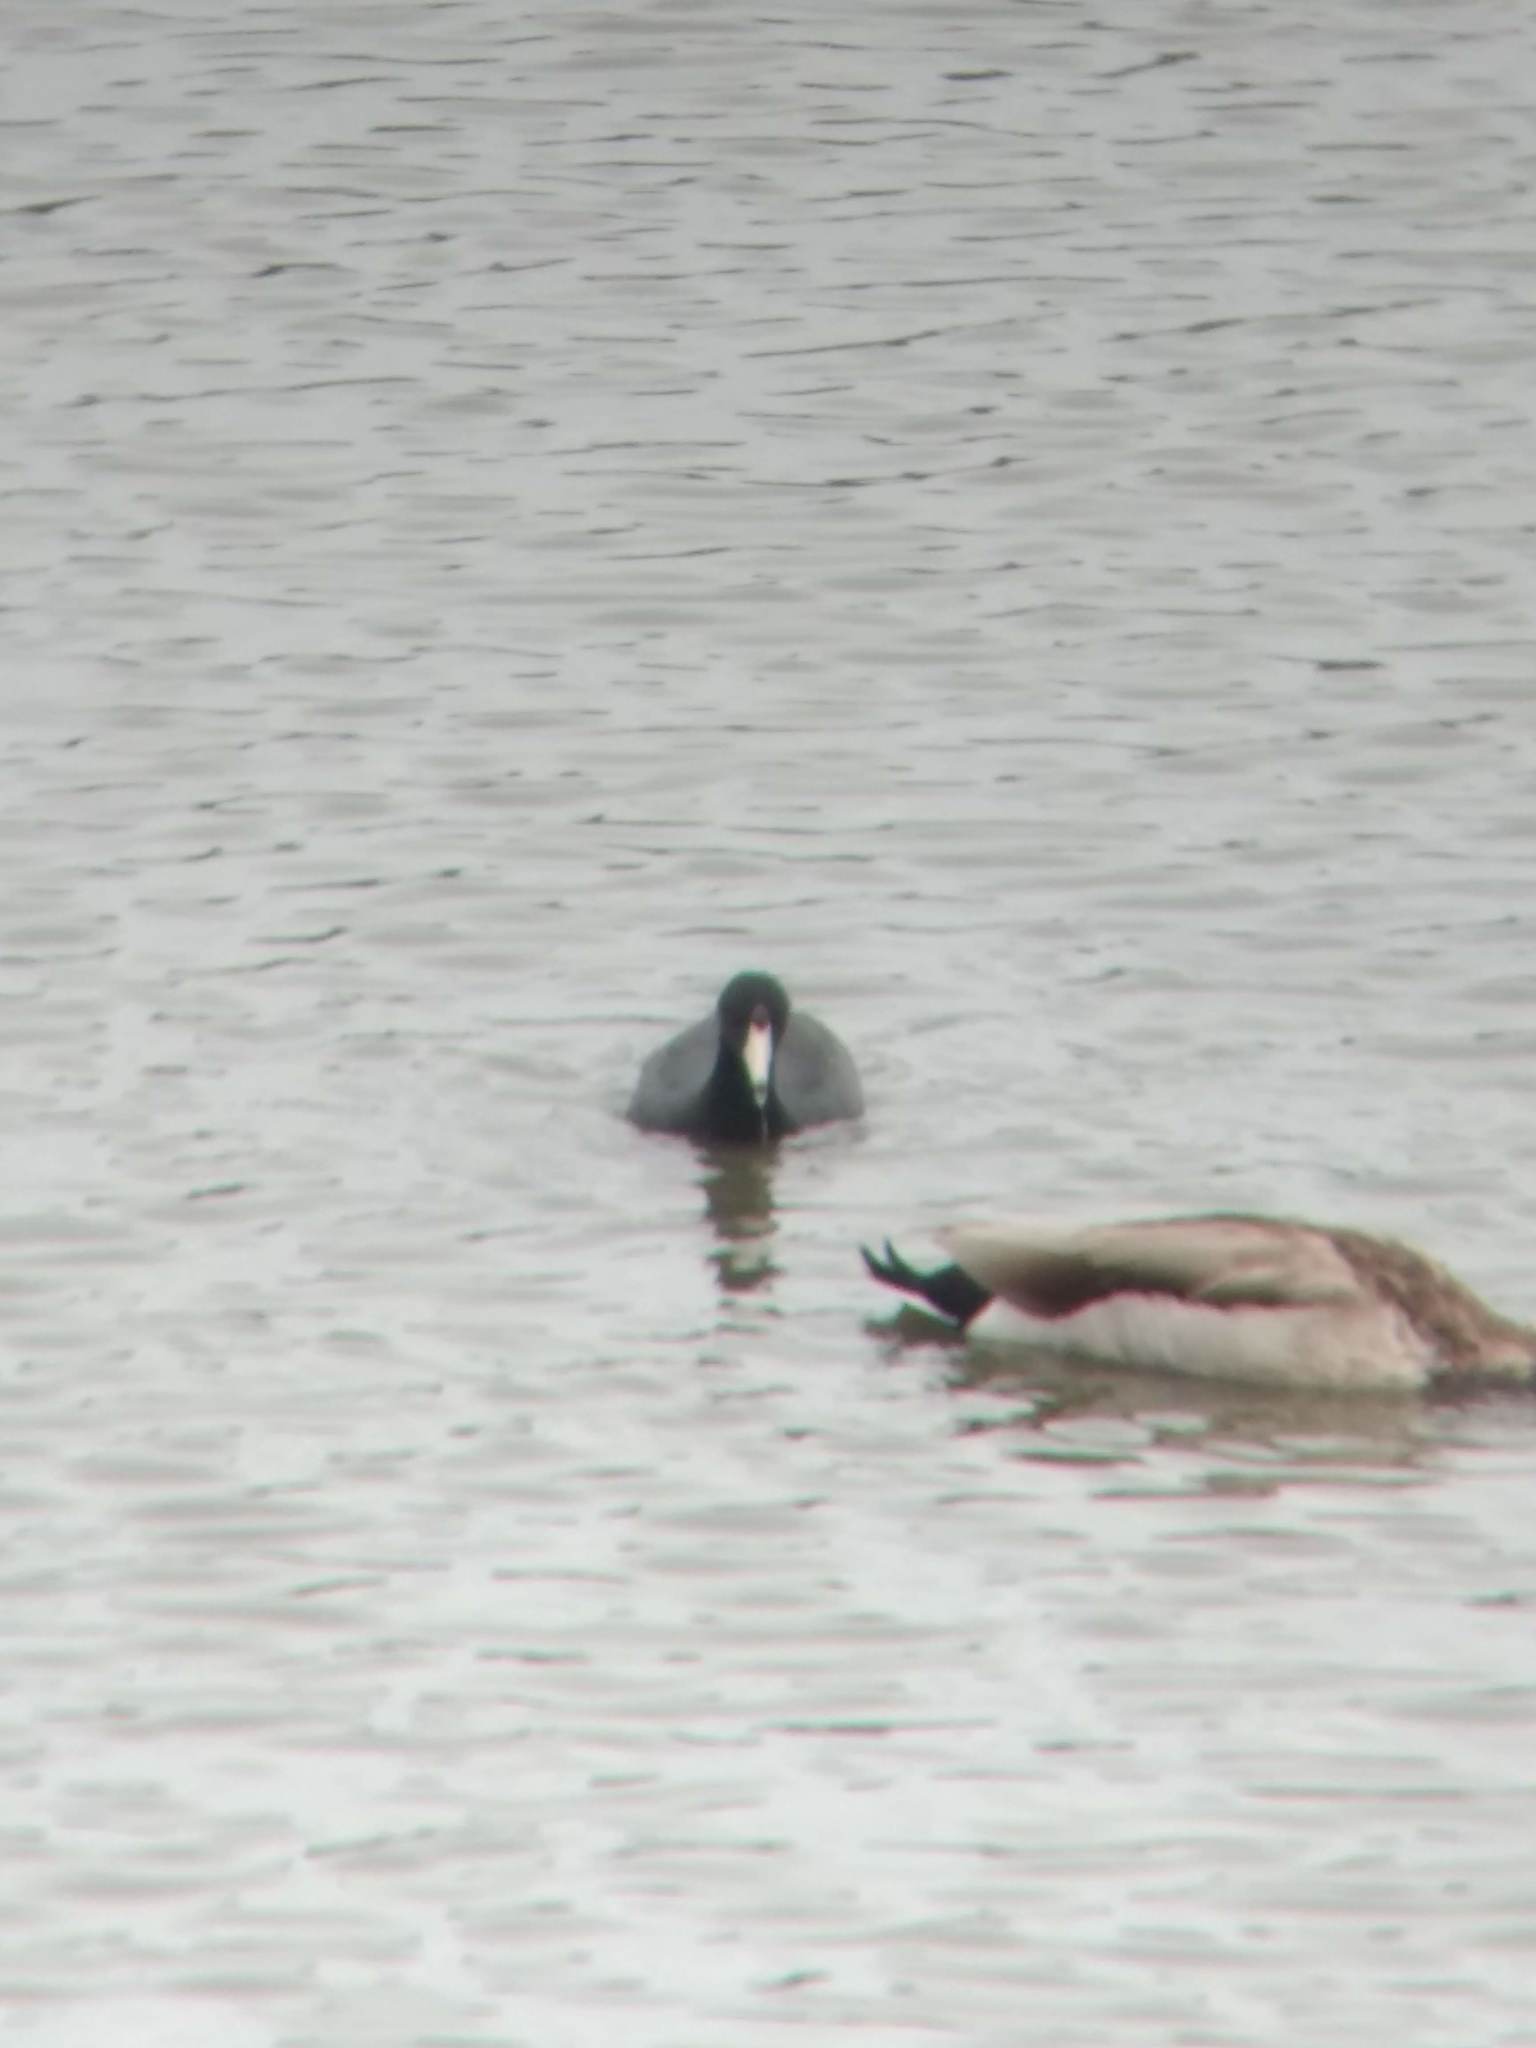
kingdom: Animalia
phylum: Chordata
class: Aves
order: Gruiformes
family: Rallidae
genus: Fulica
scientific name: Fulica americana
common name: American coot
